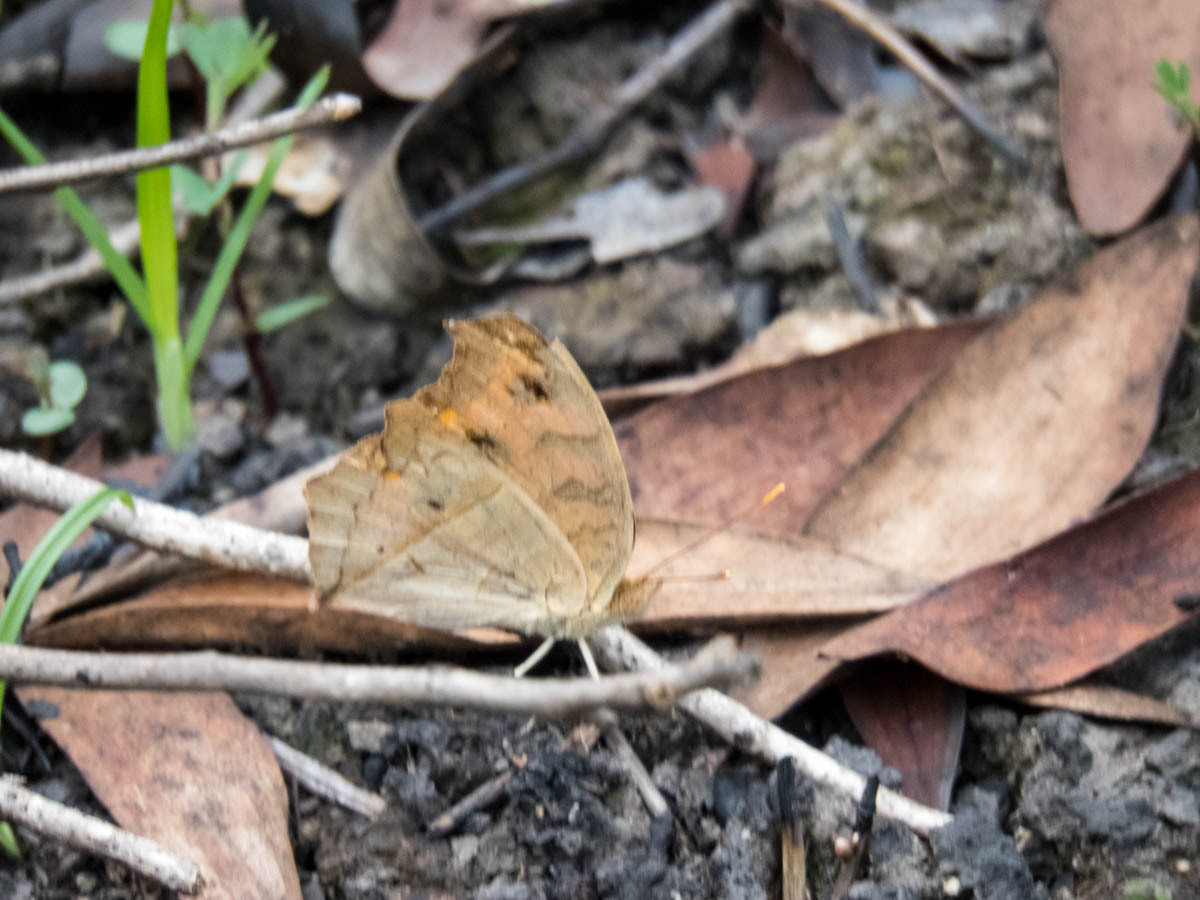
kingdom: Animalia
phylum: Arthropoda
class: Insecta
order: Lepidoptera
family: Nymphalidae
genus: Junonia
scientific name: Junonia almana
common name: Peacock pansy
